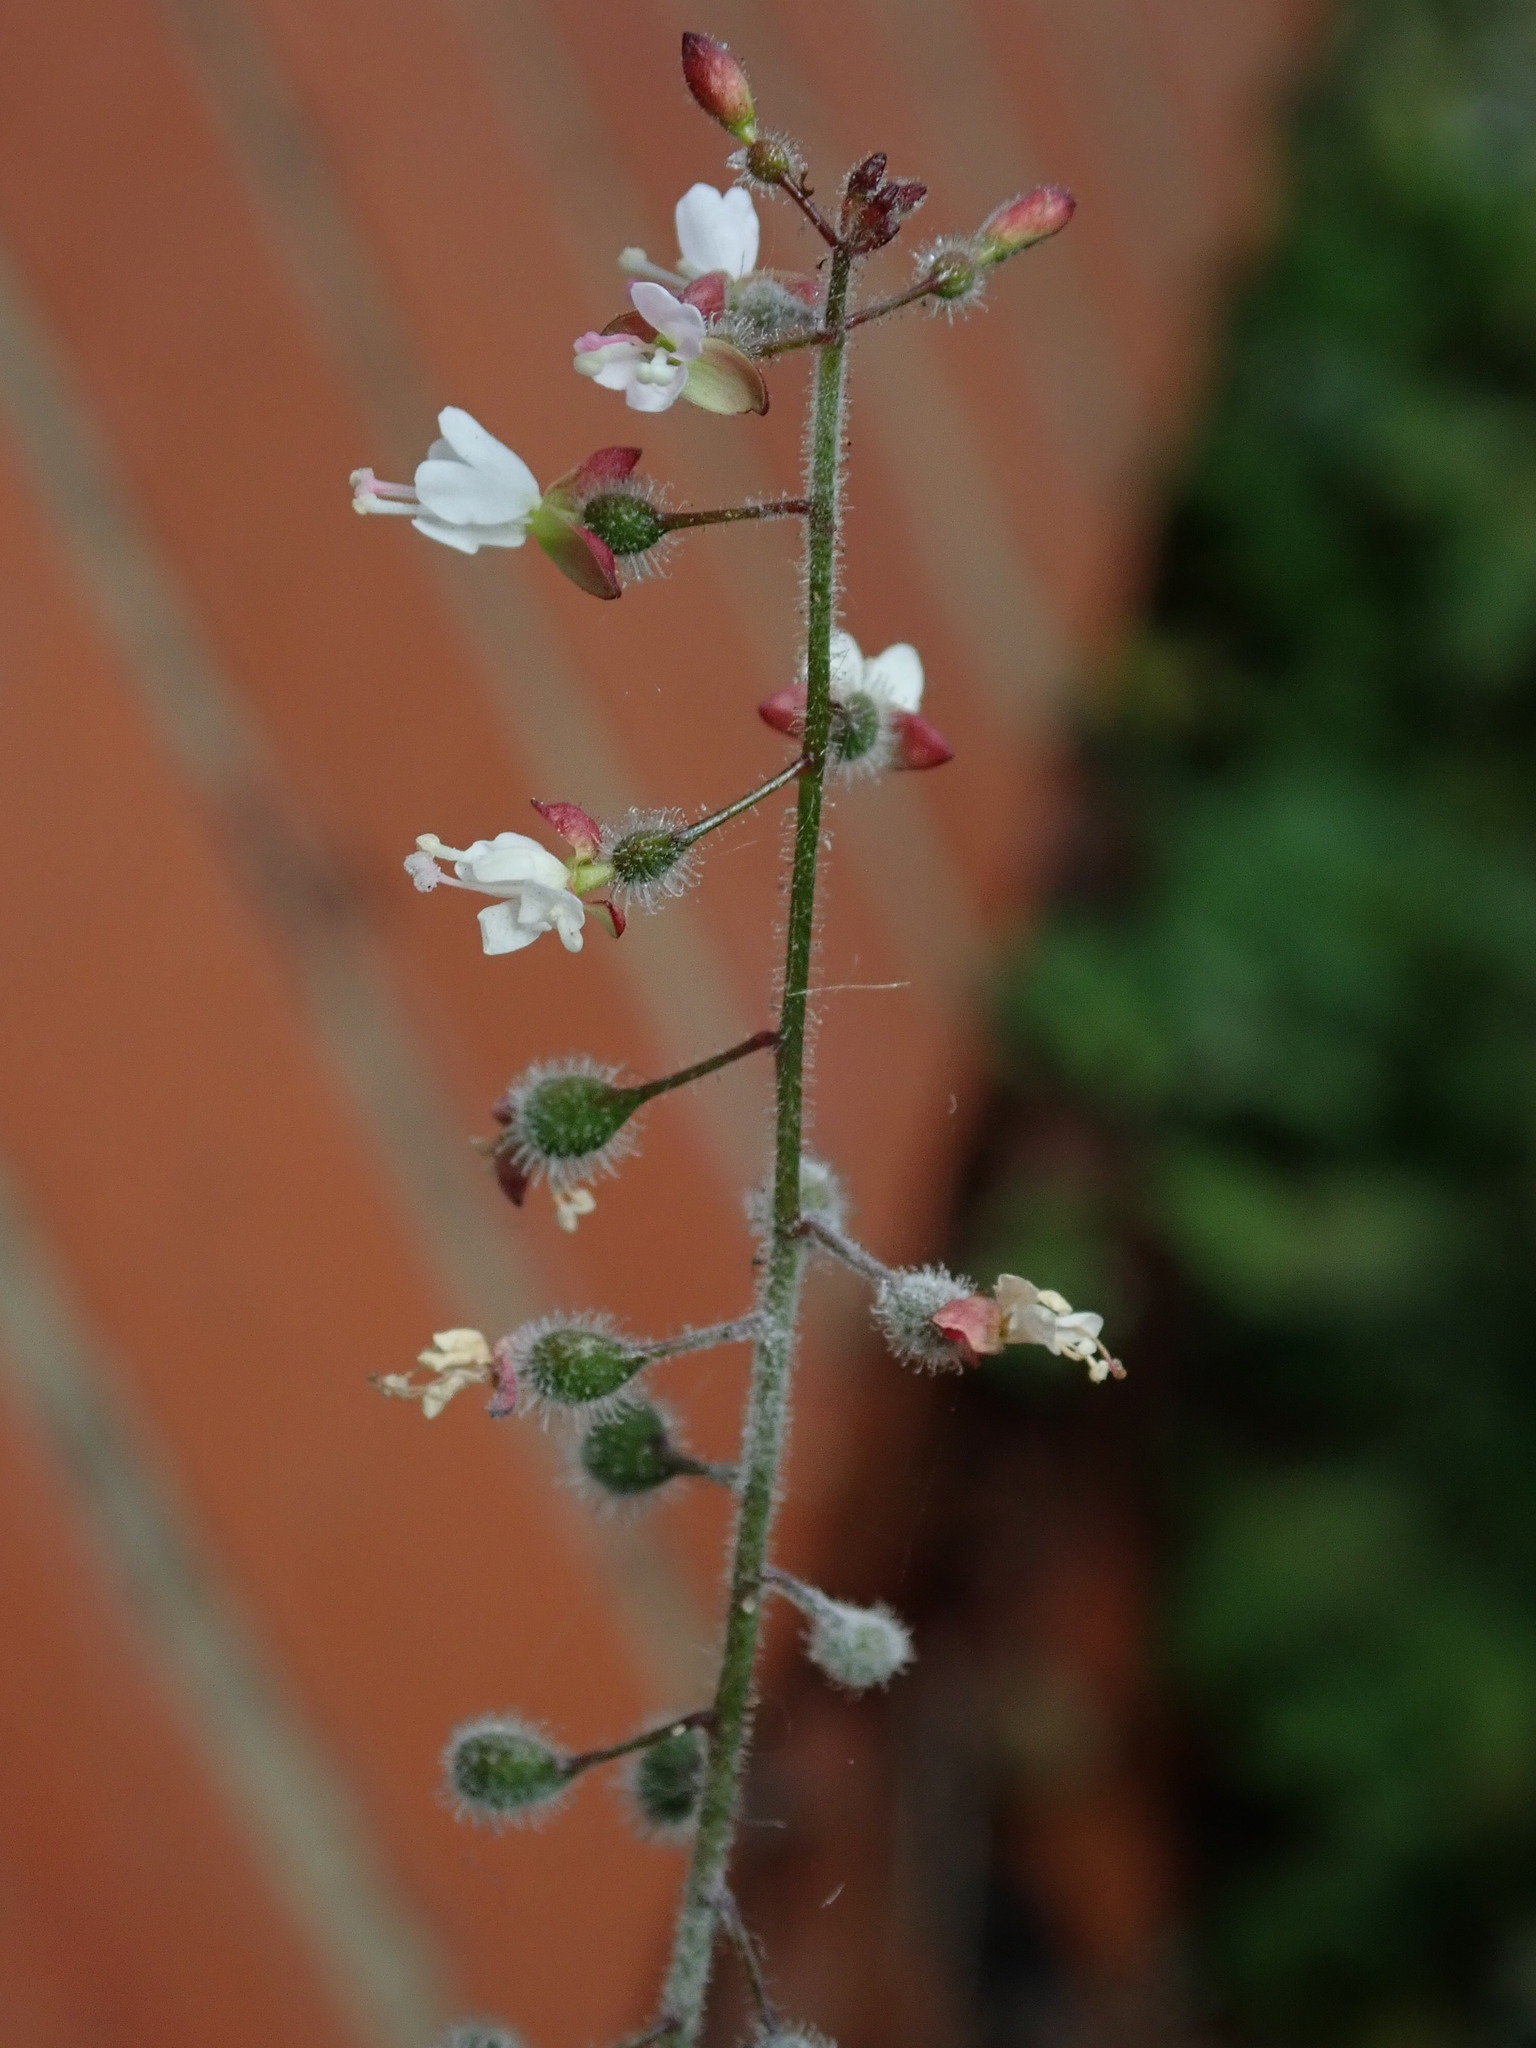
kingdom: Plantae
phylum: Tracheophyta
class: Magnoliopsida
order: Myrtales
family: Onagraceae
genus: Circaea
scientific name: Circaea lutetiana
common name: Enchanter's-nightshade
